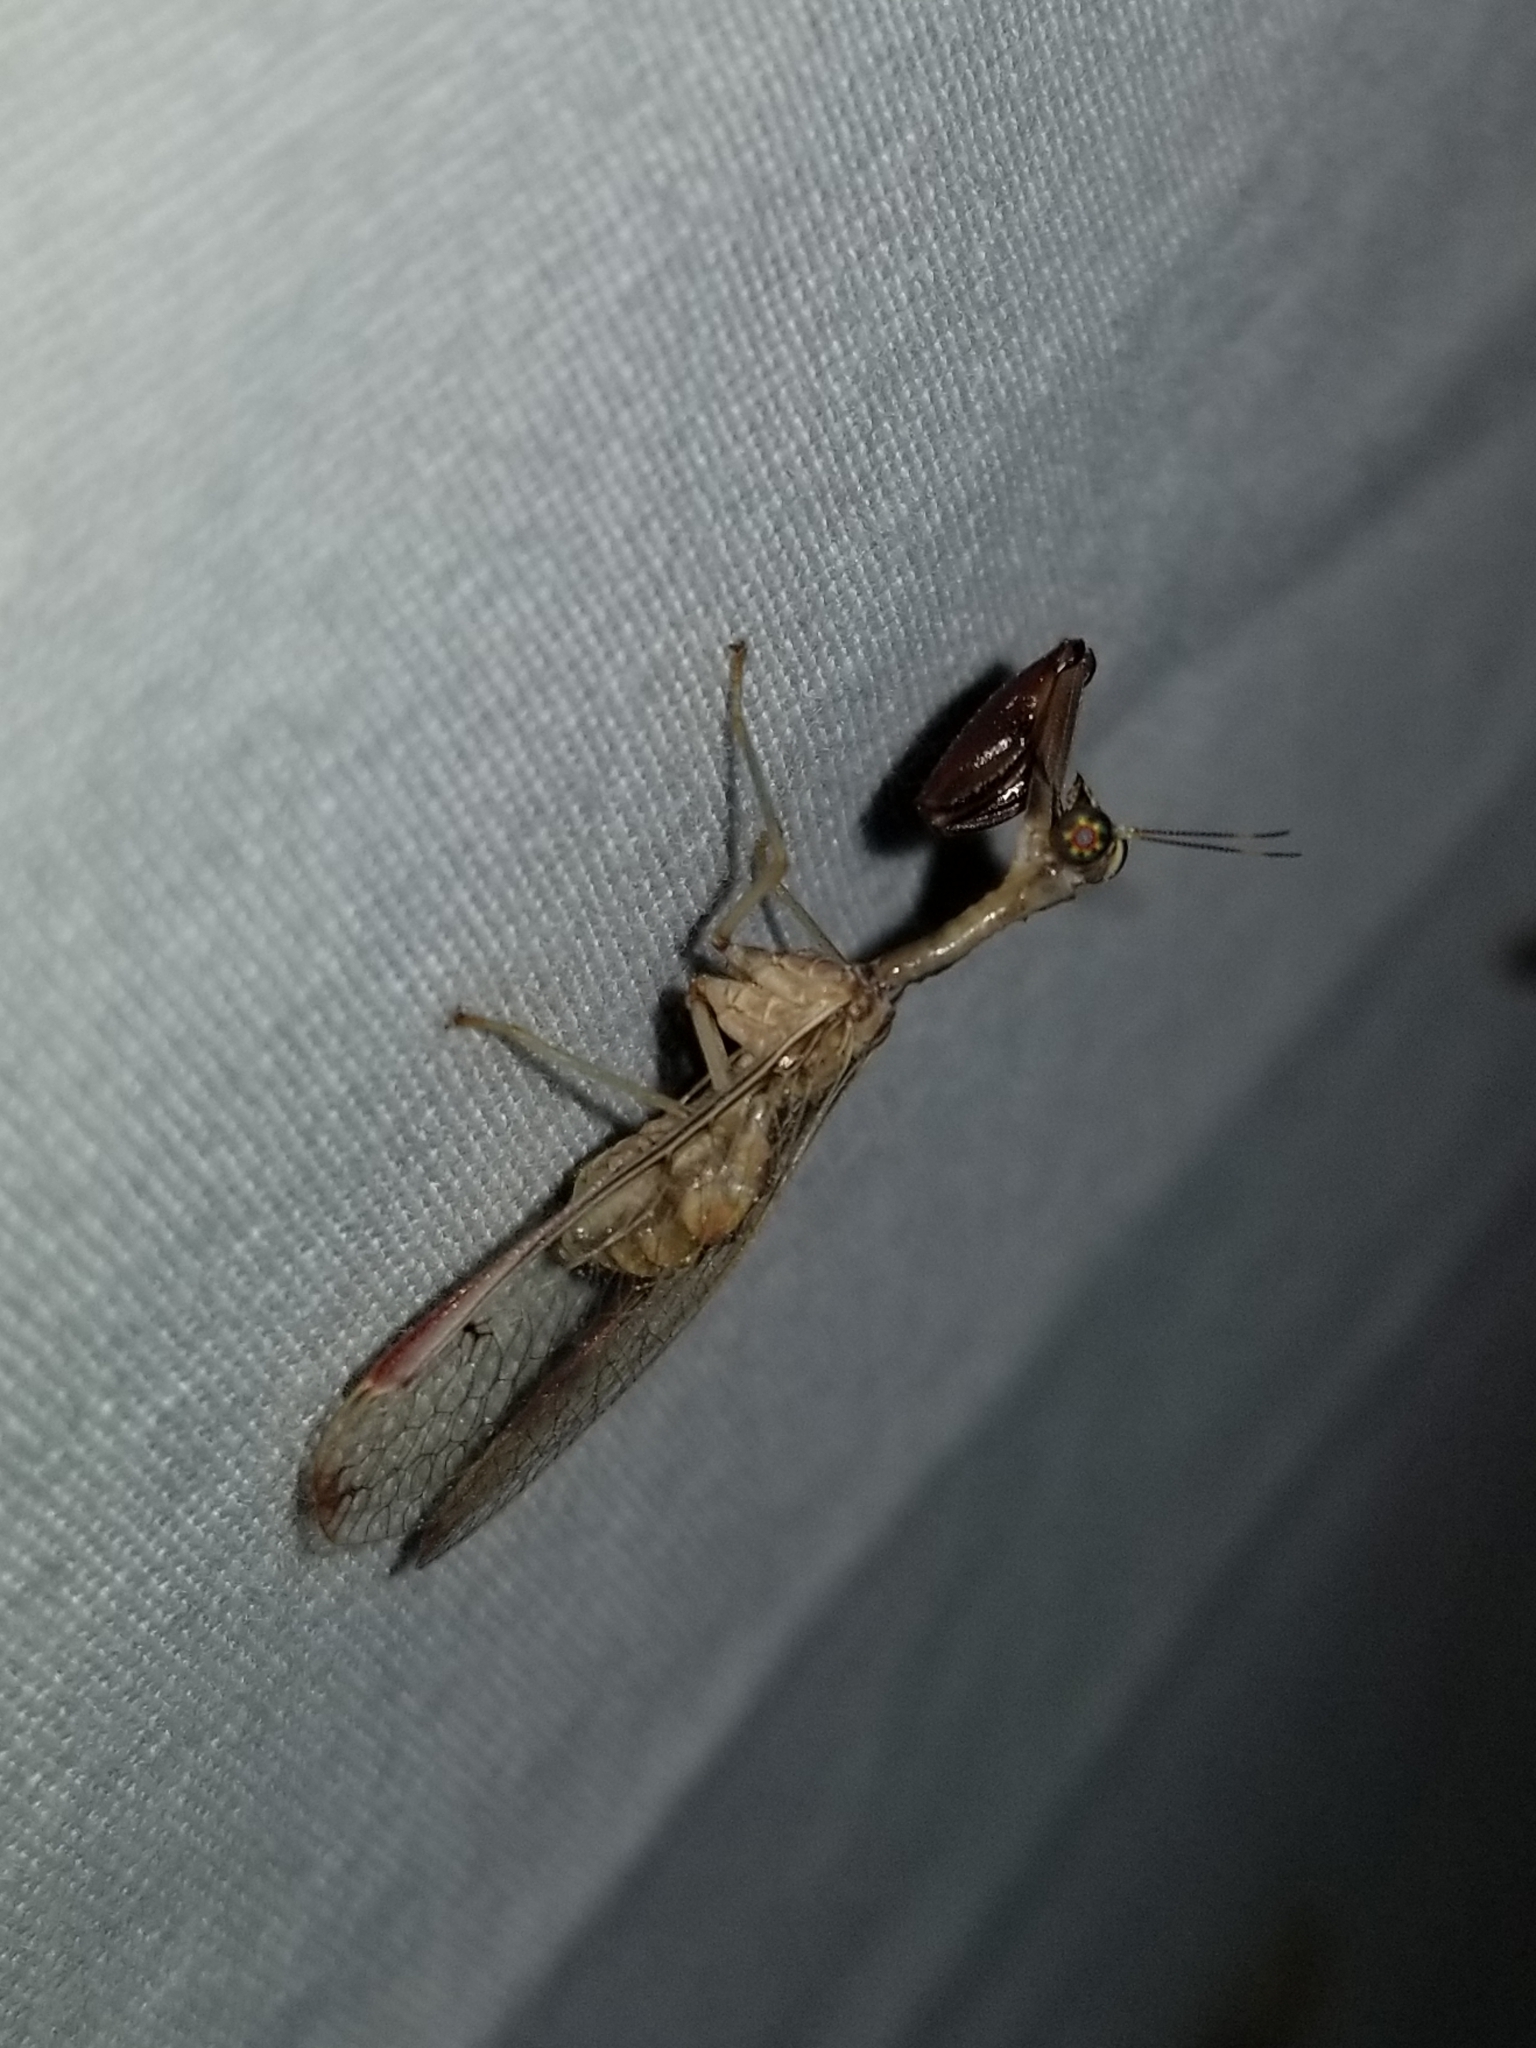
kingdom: Animalia
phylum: Arthropoda
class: Insecta
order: Neuroptera
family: Mantispidae
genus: Dicromantispa
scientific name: Dicromantispa interrupta
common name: Four-spotted mantidfly
